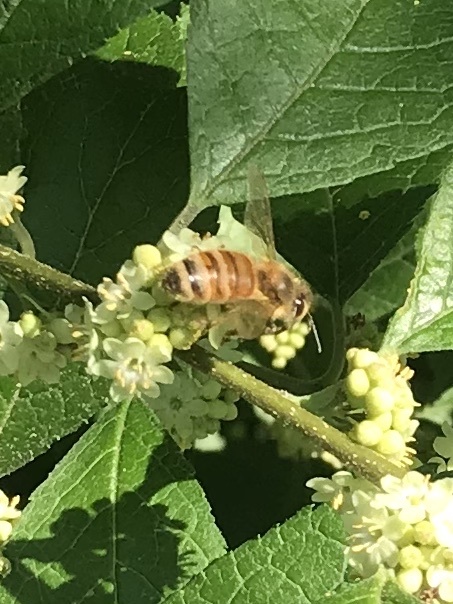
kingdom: Animalia
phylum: Arthropoda
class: Insecta
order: Hymenoptera
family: Apidae
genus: Apis
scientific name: Apis mellifera
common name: Honey bee
